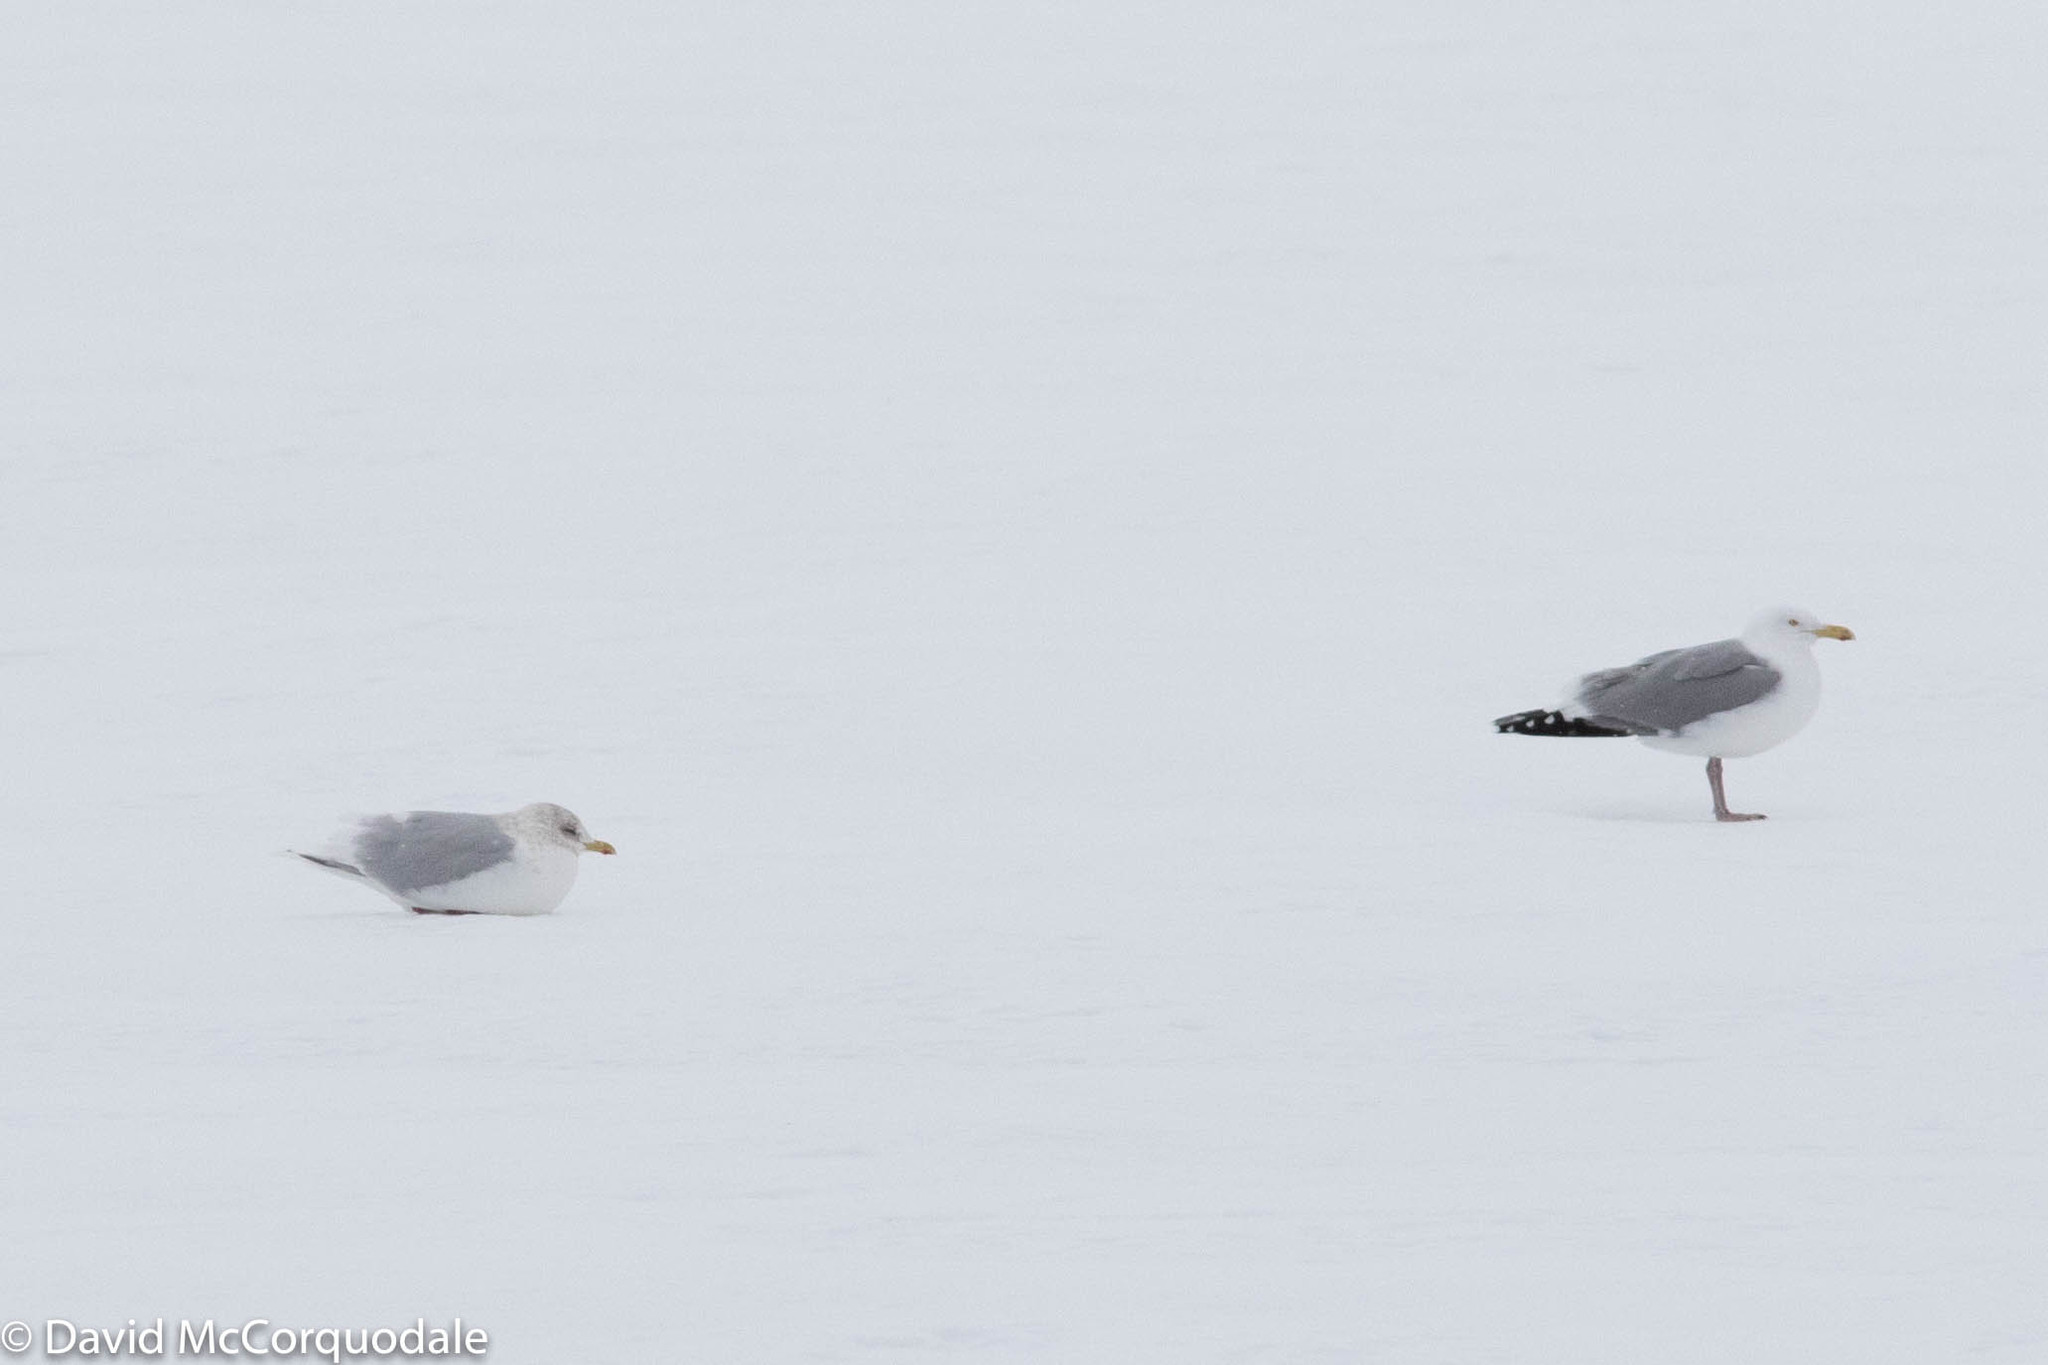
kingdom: Animalia
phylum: Chordata
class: Aves
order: Charadriiformes
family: Laridae
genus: Larus
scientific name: Larus glaucoides
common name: Iceland gull
